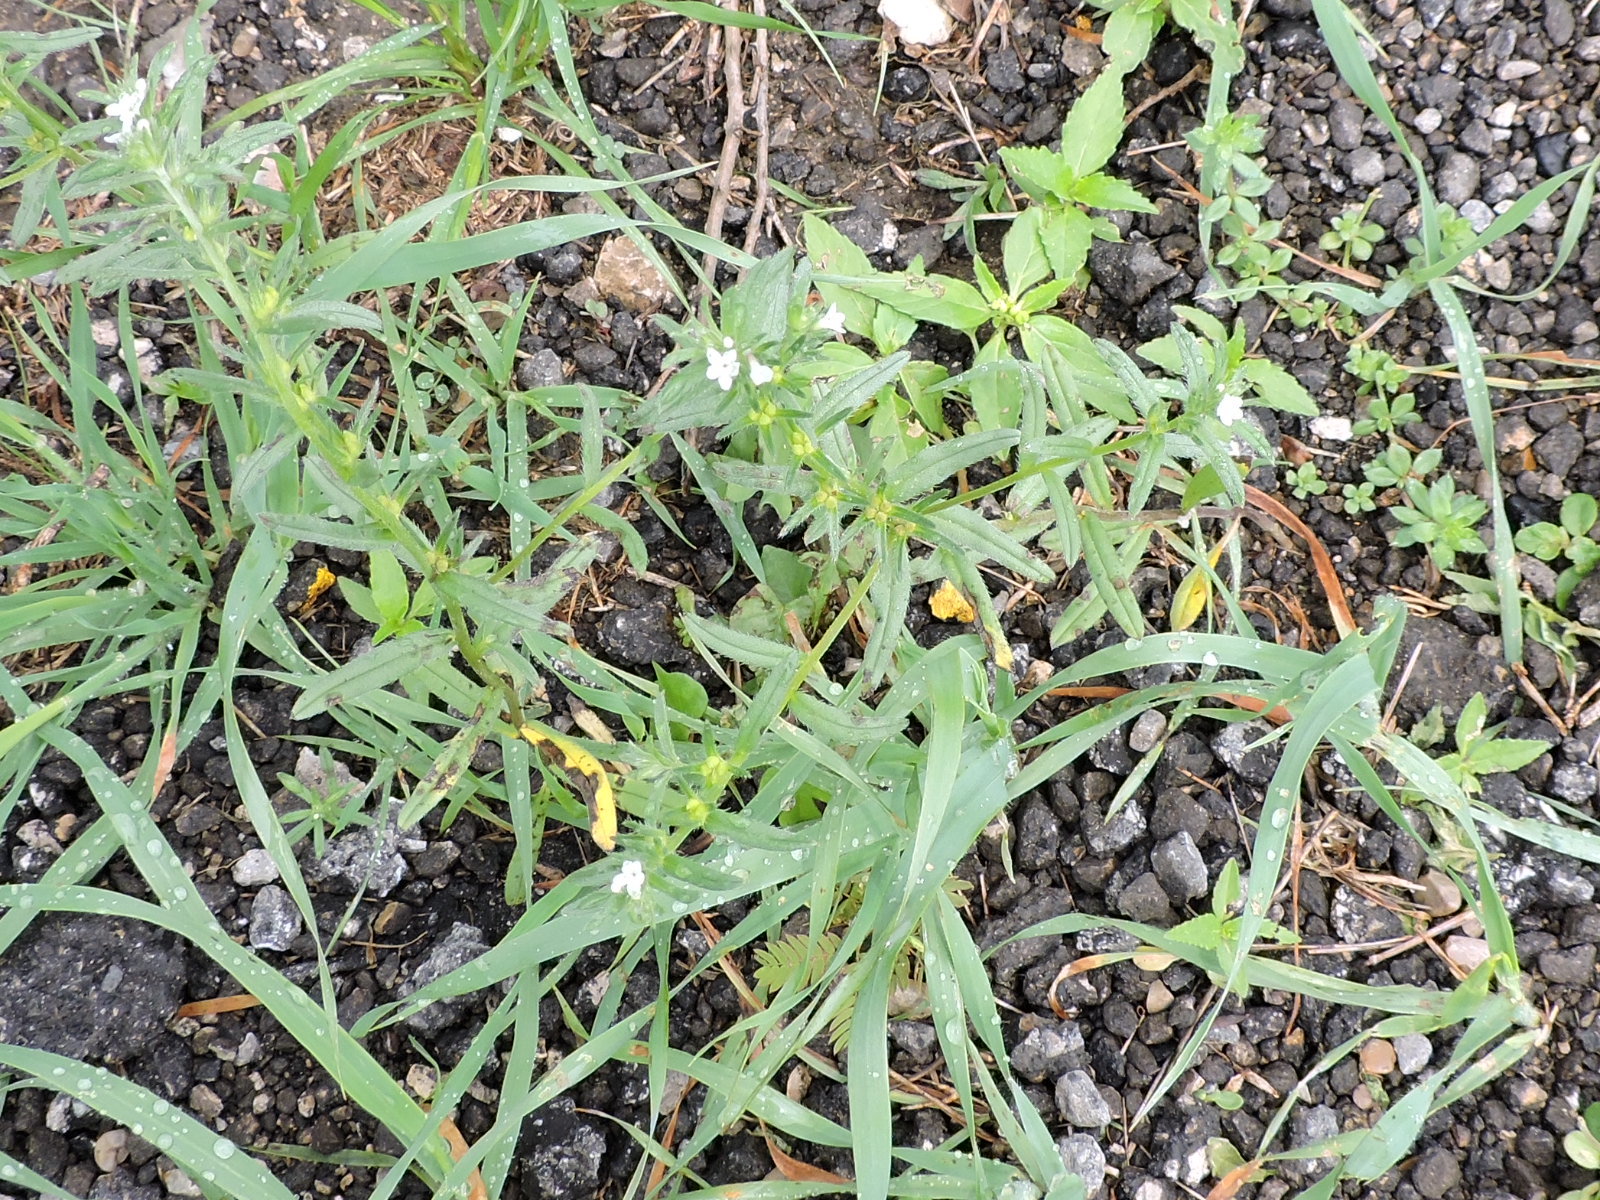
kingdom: Plantae
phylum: Tracheophyta
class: Magnoliopsida
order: Boraginales
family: Boraginaceae
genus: Buglossoides
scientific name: Buglossoides arvensis
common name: Corn gromwell
